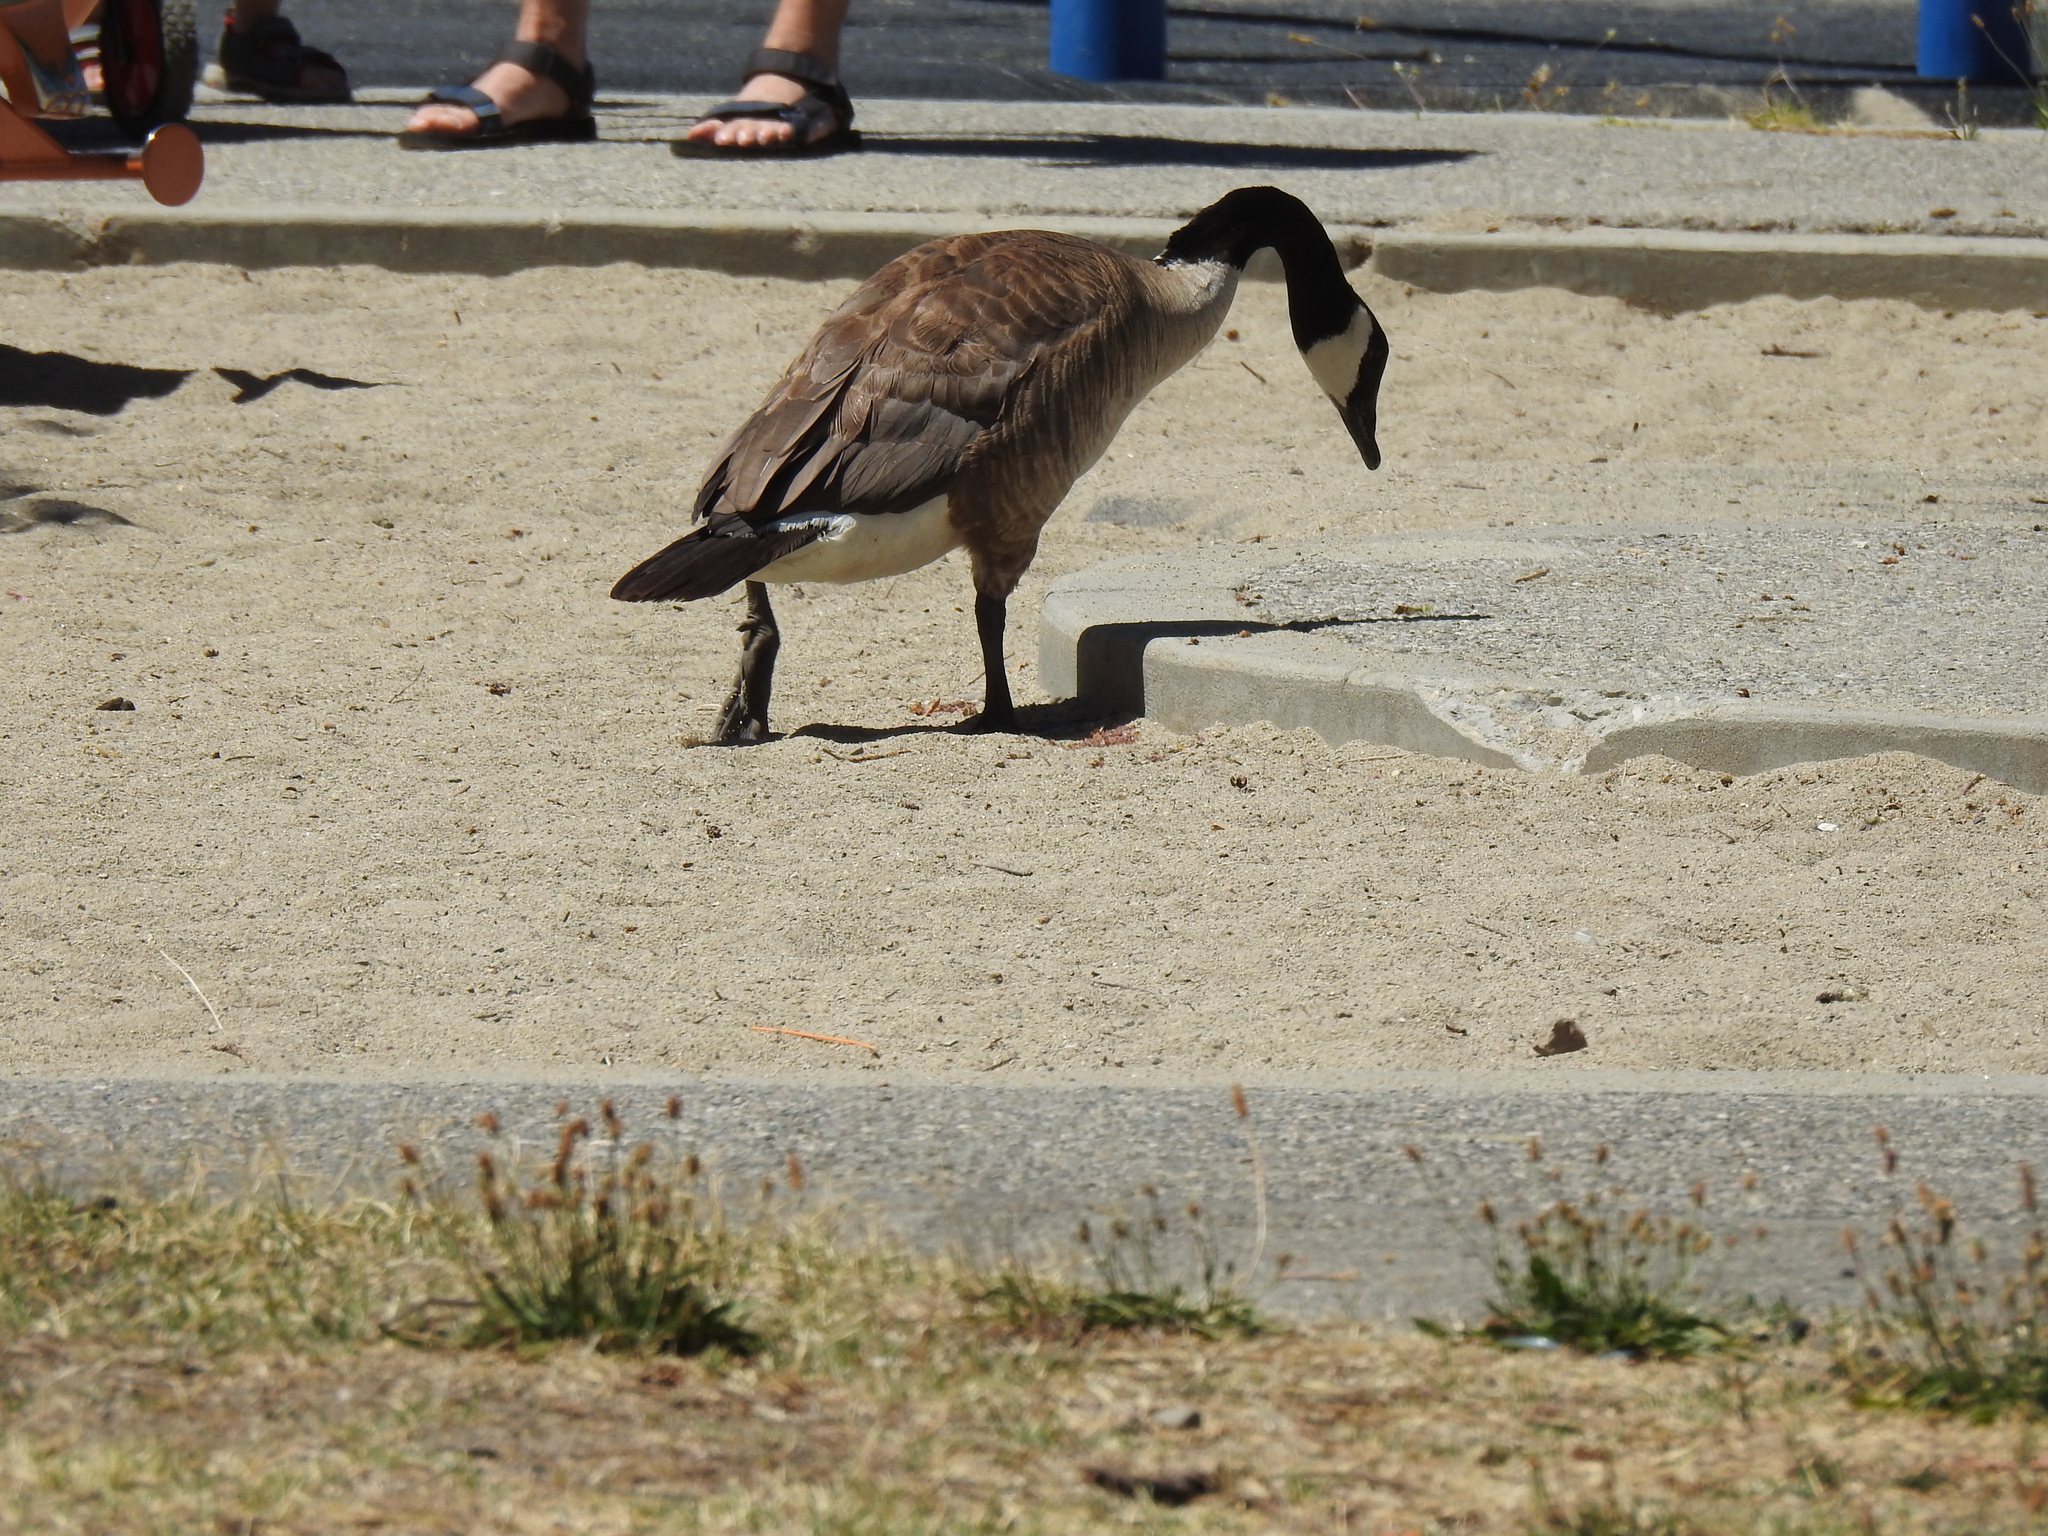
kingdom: Animalia
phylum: Chordata
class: Aves
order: Anseriformes
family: Anatidae
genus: Branta
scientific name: Branta canadensis
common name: Canada goose
